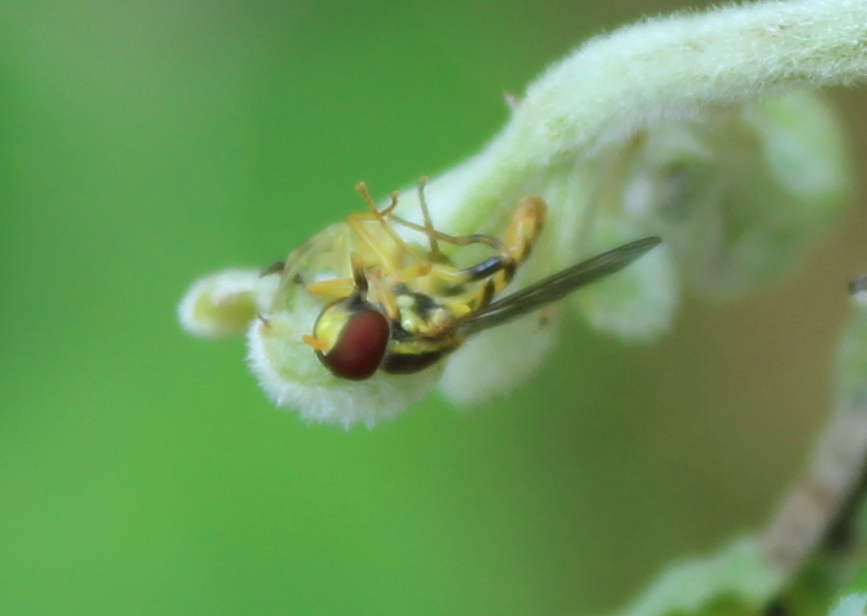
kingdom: Animalia
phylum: Arthropoda
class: Insecta
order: Diptera
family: Syrphidae
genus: Toxomerus
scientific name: Toxomerus geminatus
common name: Eastern calligrapher
